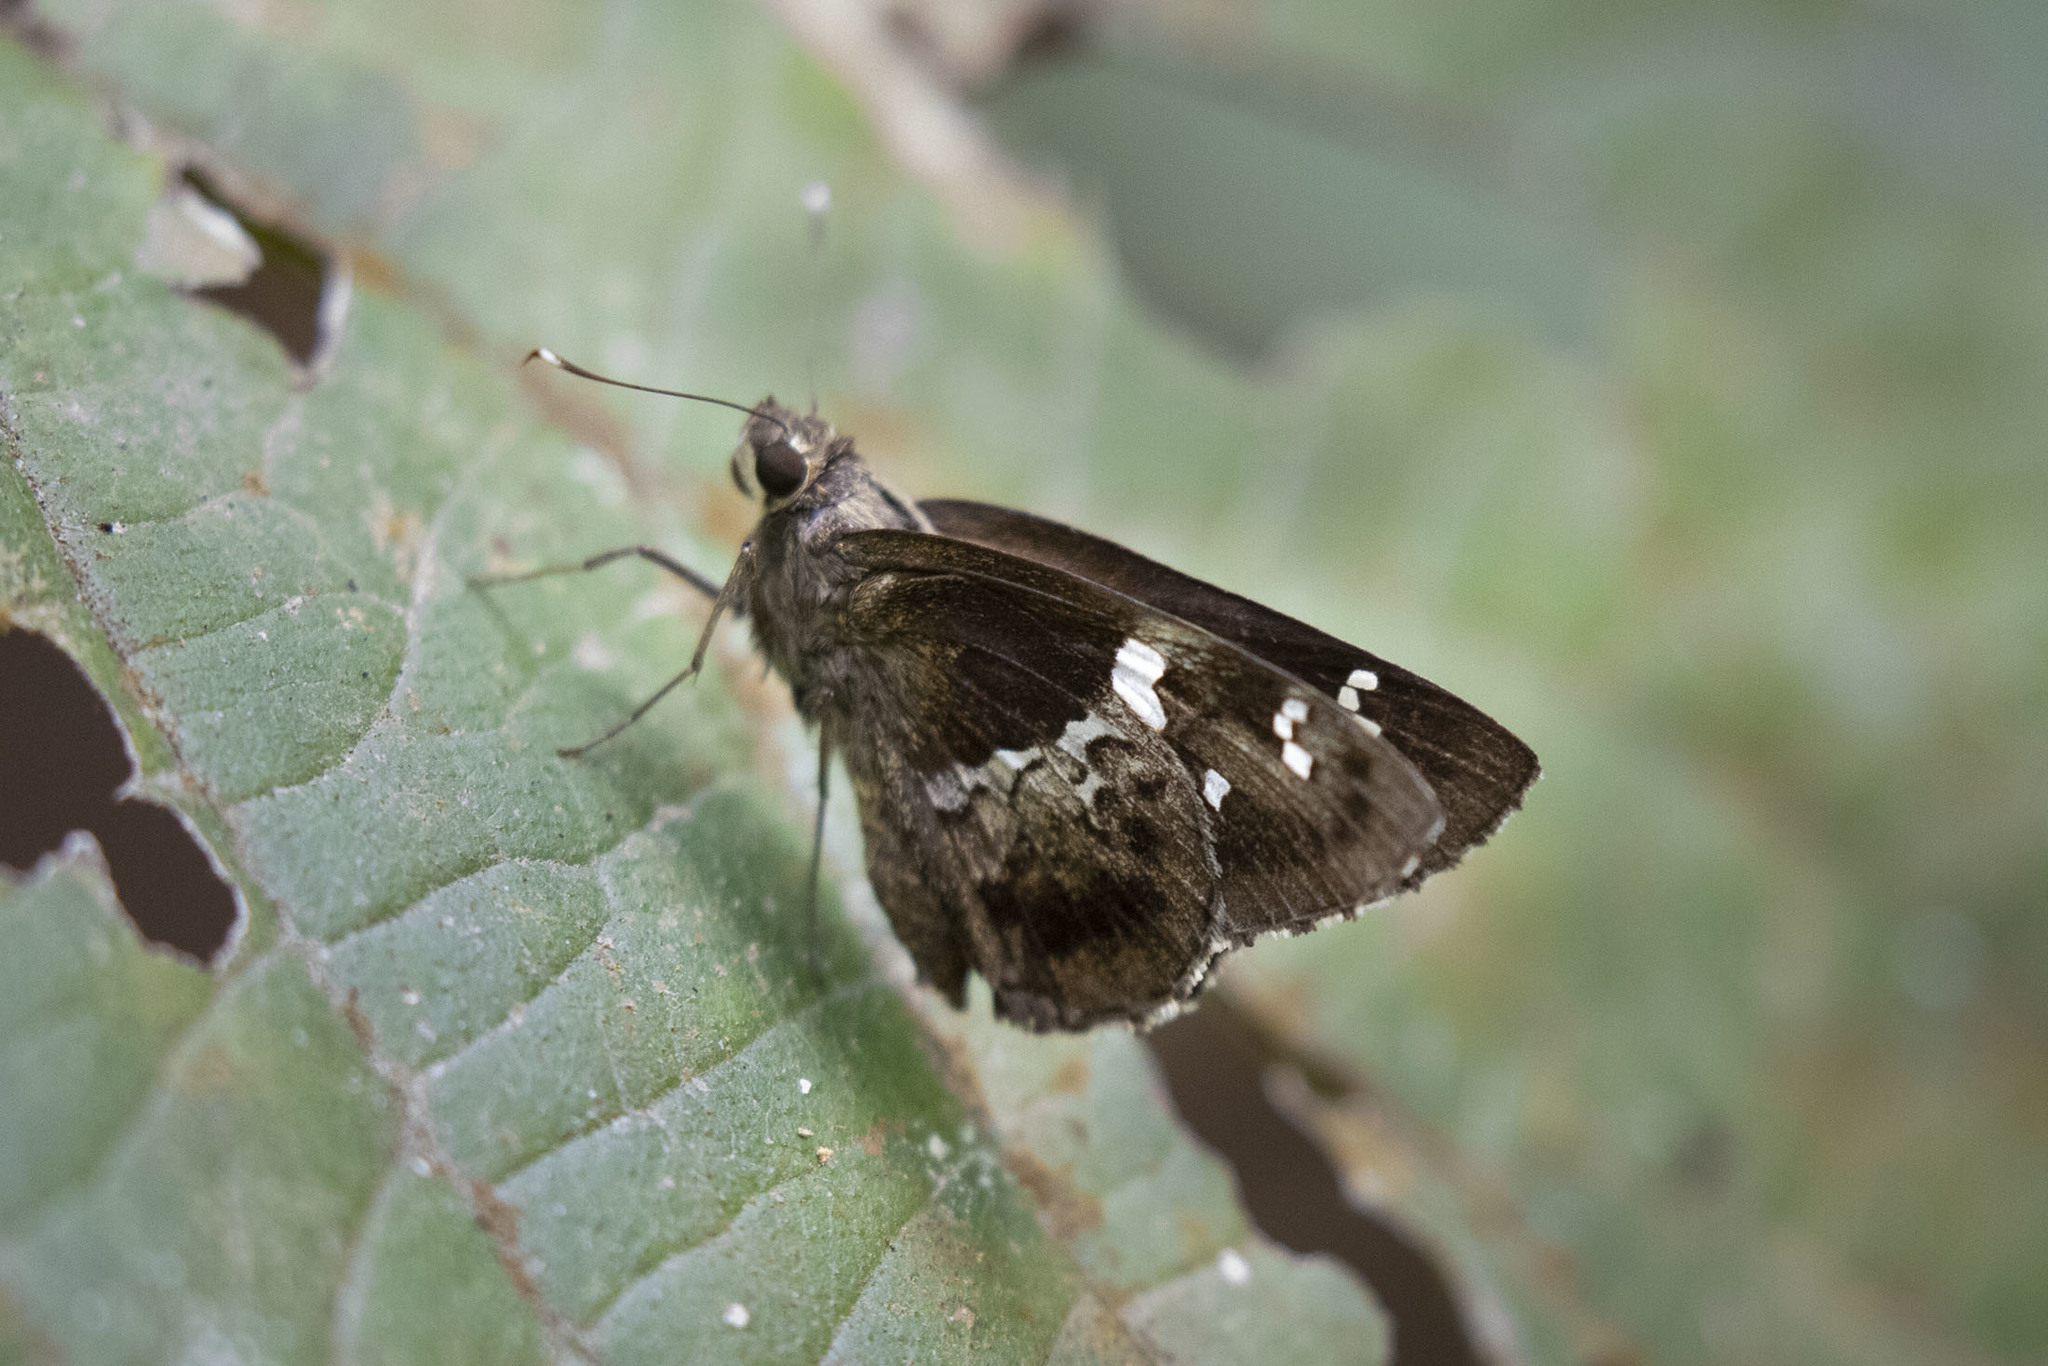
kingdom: Animalia
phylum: Arthropoda
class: Insecta
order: Lepidoptera
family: Hesperiidae
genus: Hyarotis
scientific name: Hyarotis adrastus
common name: Tree flitter
